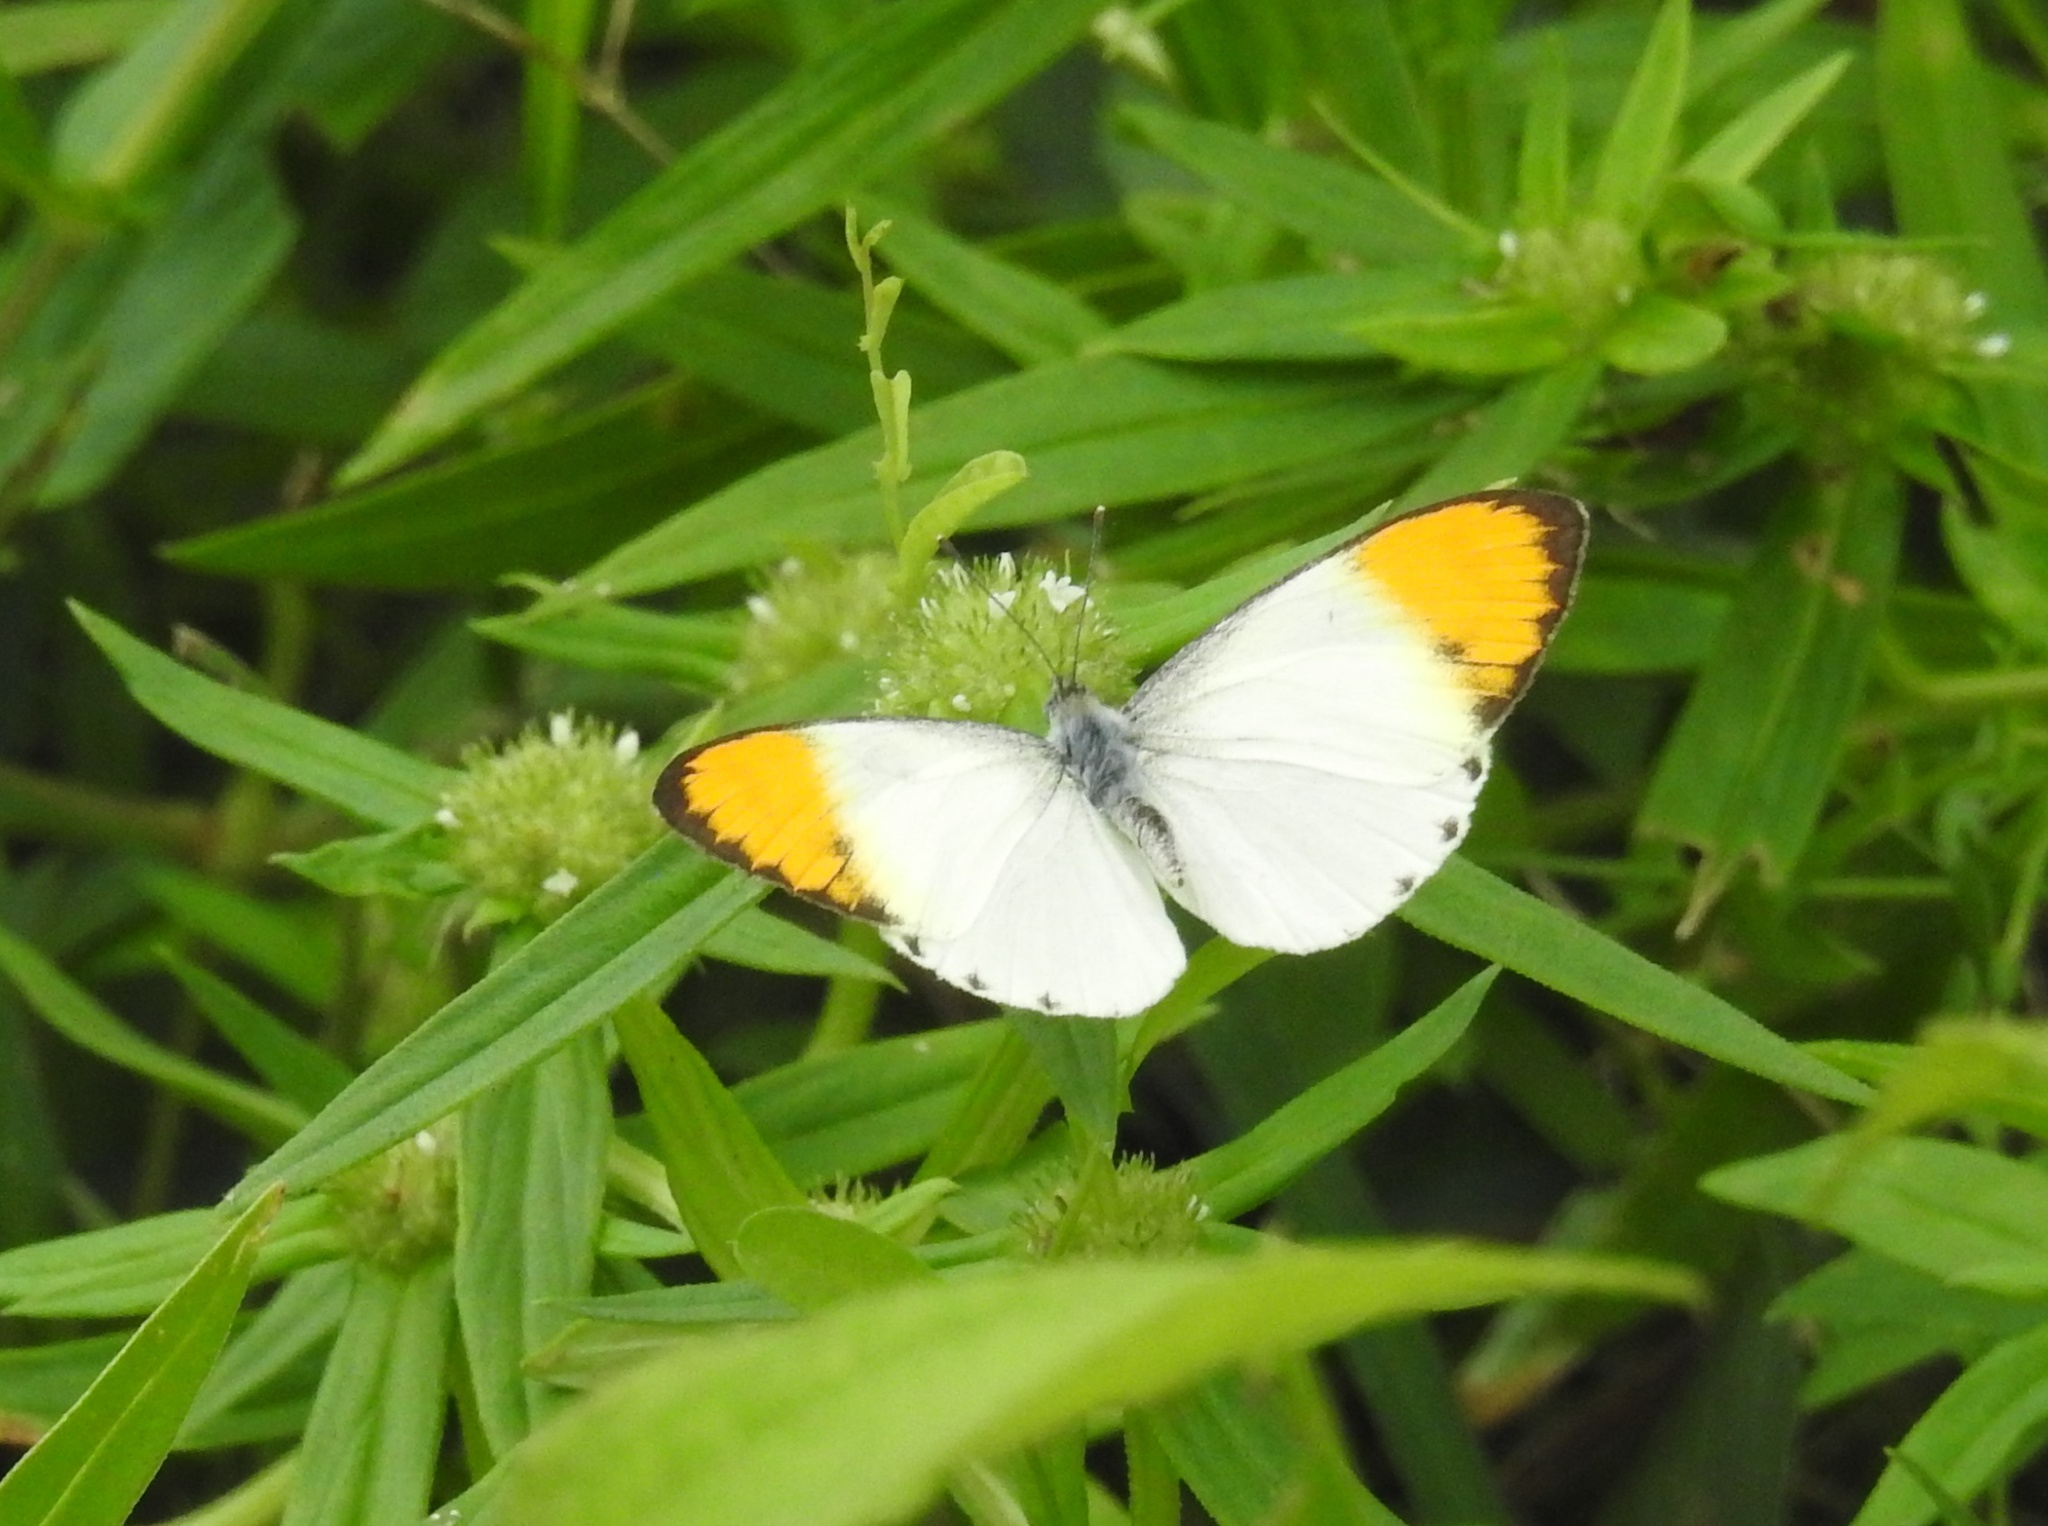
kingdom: Animalia
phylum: Arthropoda
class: Insecta
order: Lepidoptera
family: Pieridae
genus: Colotis
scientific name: Colotis aurora
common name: Plain orange-tip
